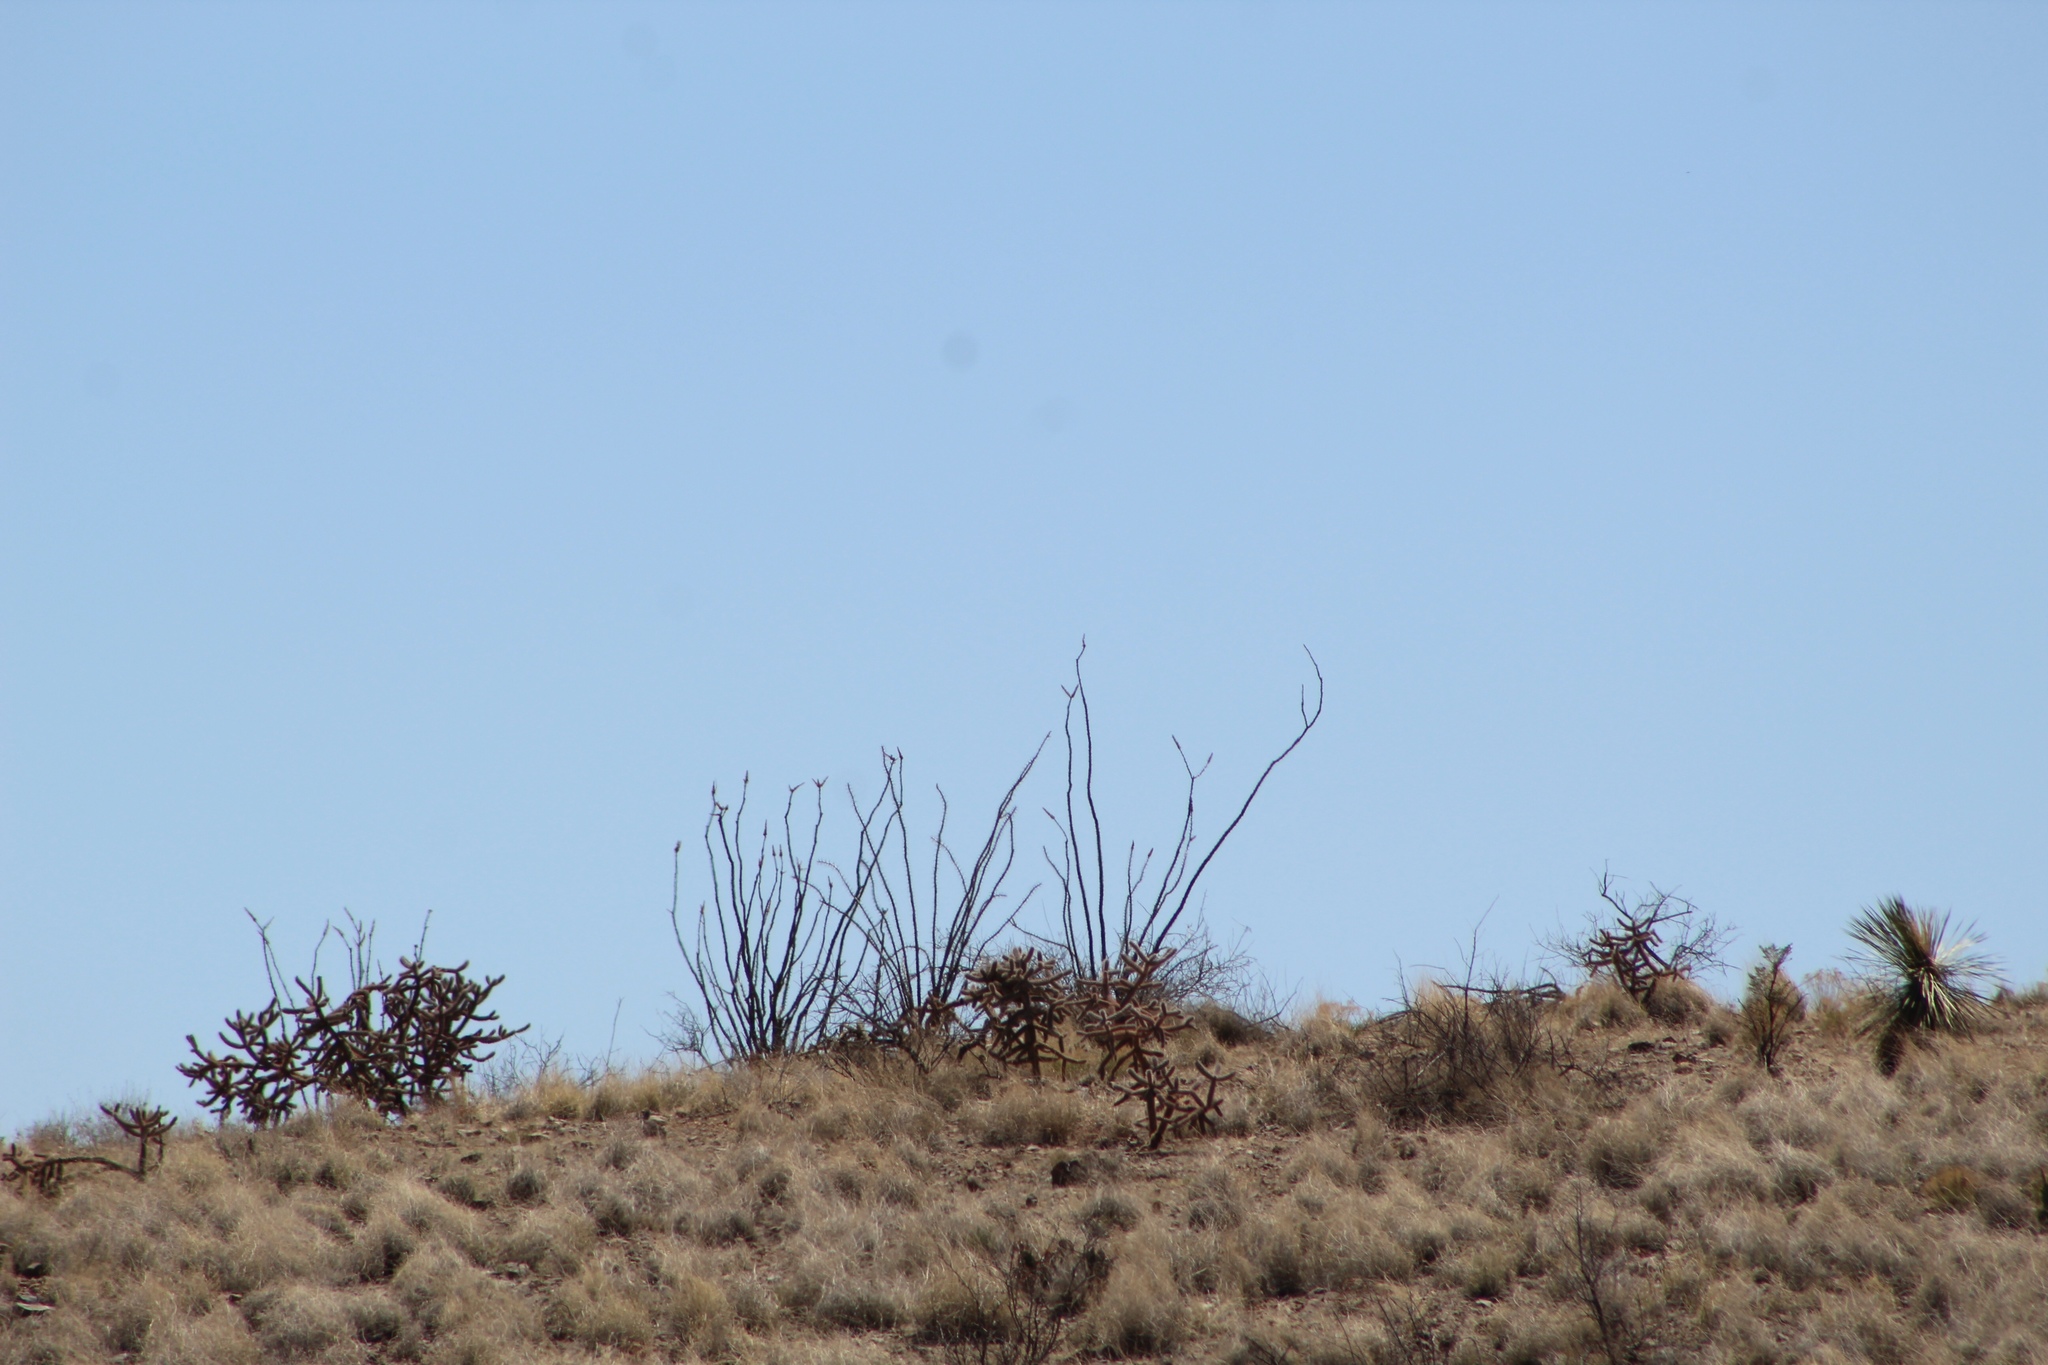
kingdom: Plantae
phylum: Tracheophyta
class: Magnoliopsida
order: Ericales
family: Fouquieriaceae
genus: Fouquieria
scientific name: Fouquieria splendens
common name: Vine-cactus
